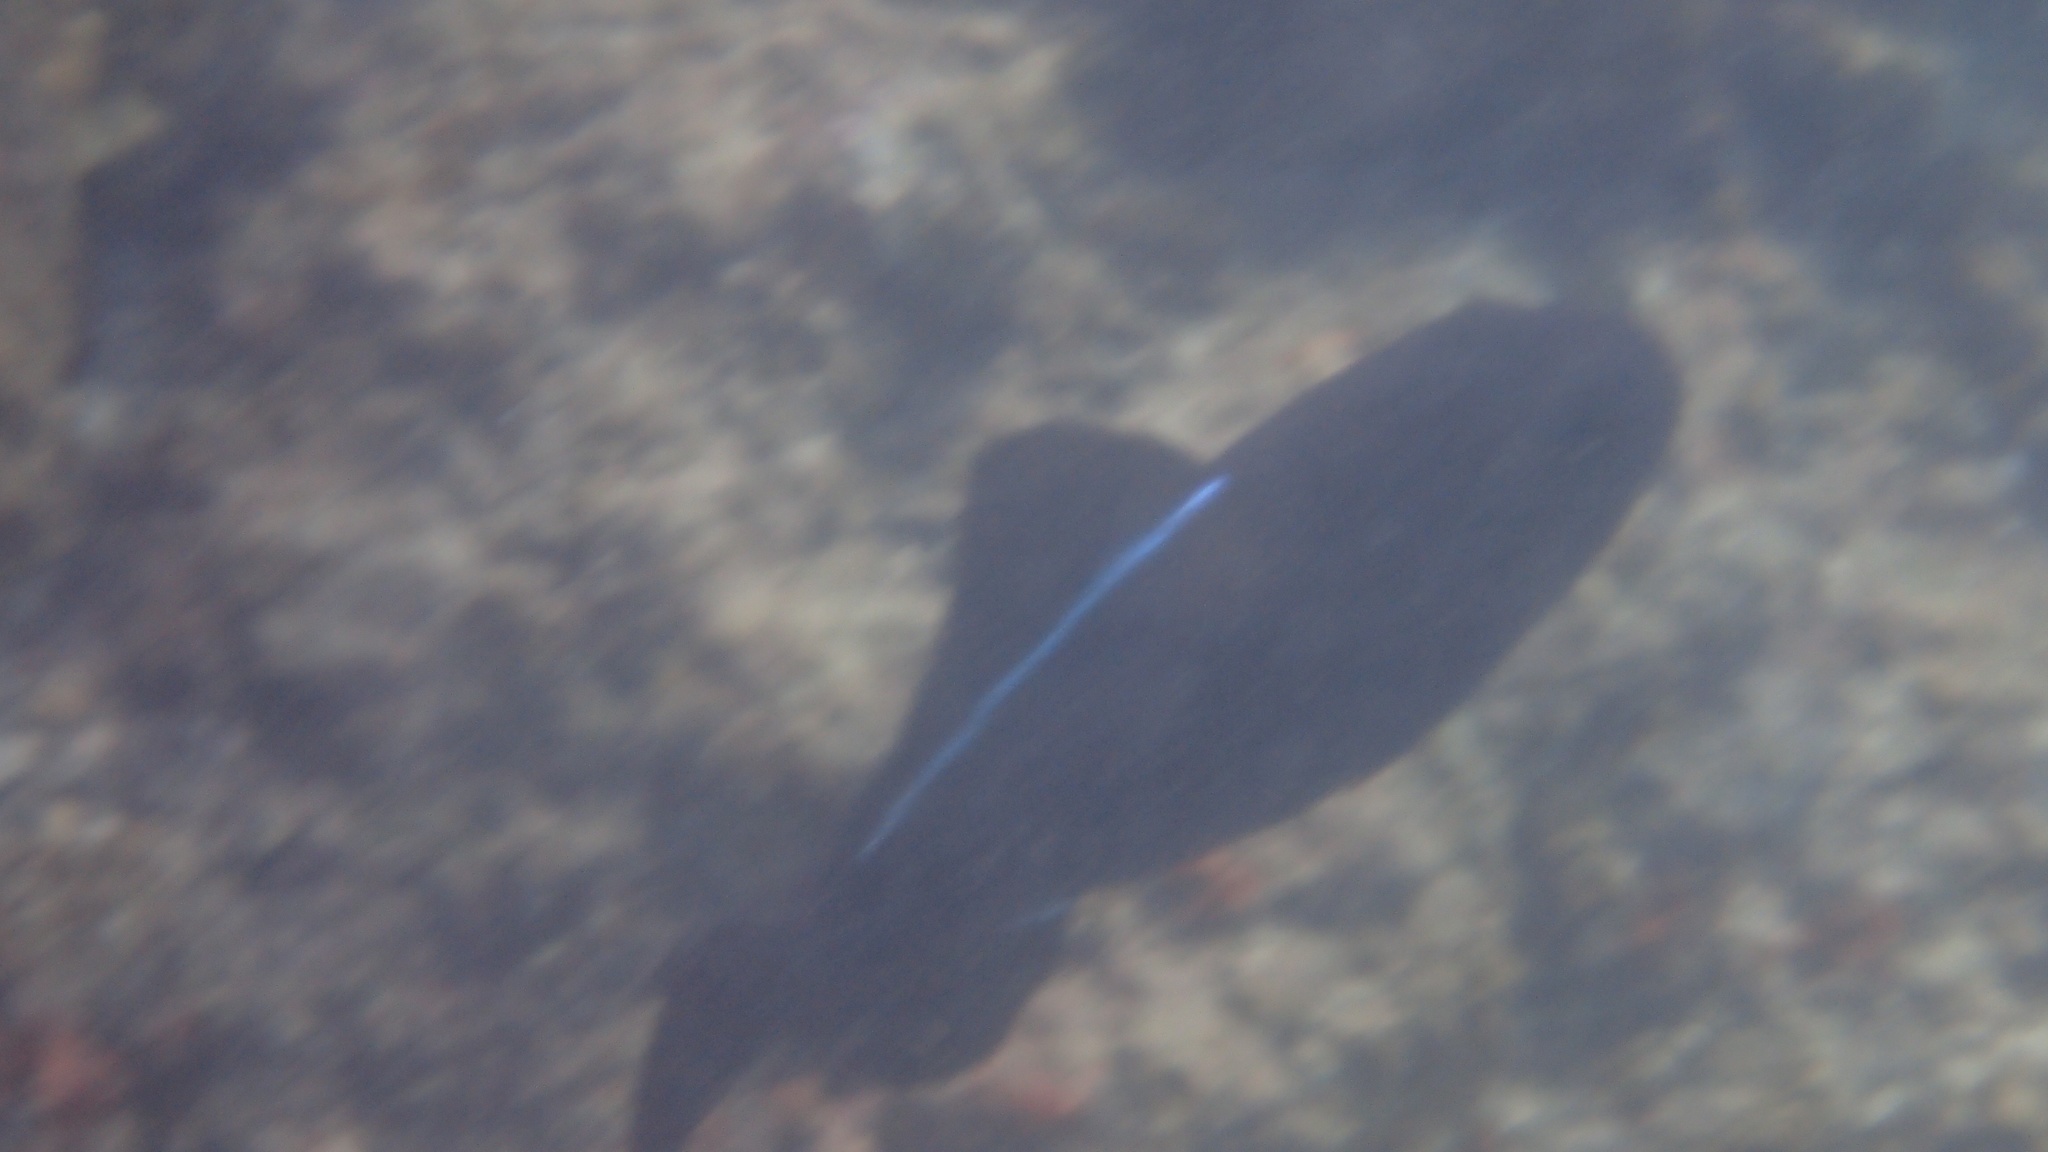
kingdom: Animalia
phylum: Chordata
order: Tetraodontiformes
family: Balistidae
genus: Melichthys
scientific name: Melichthys niger
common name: Black durgon
